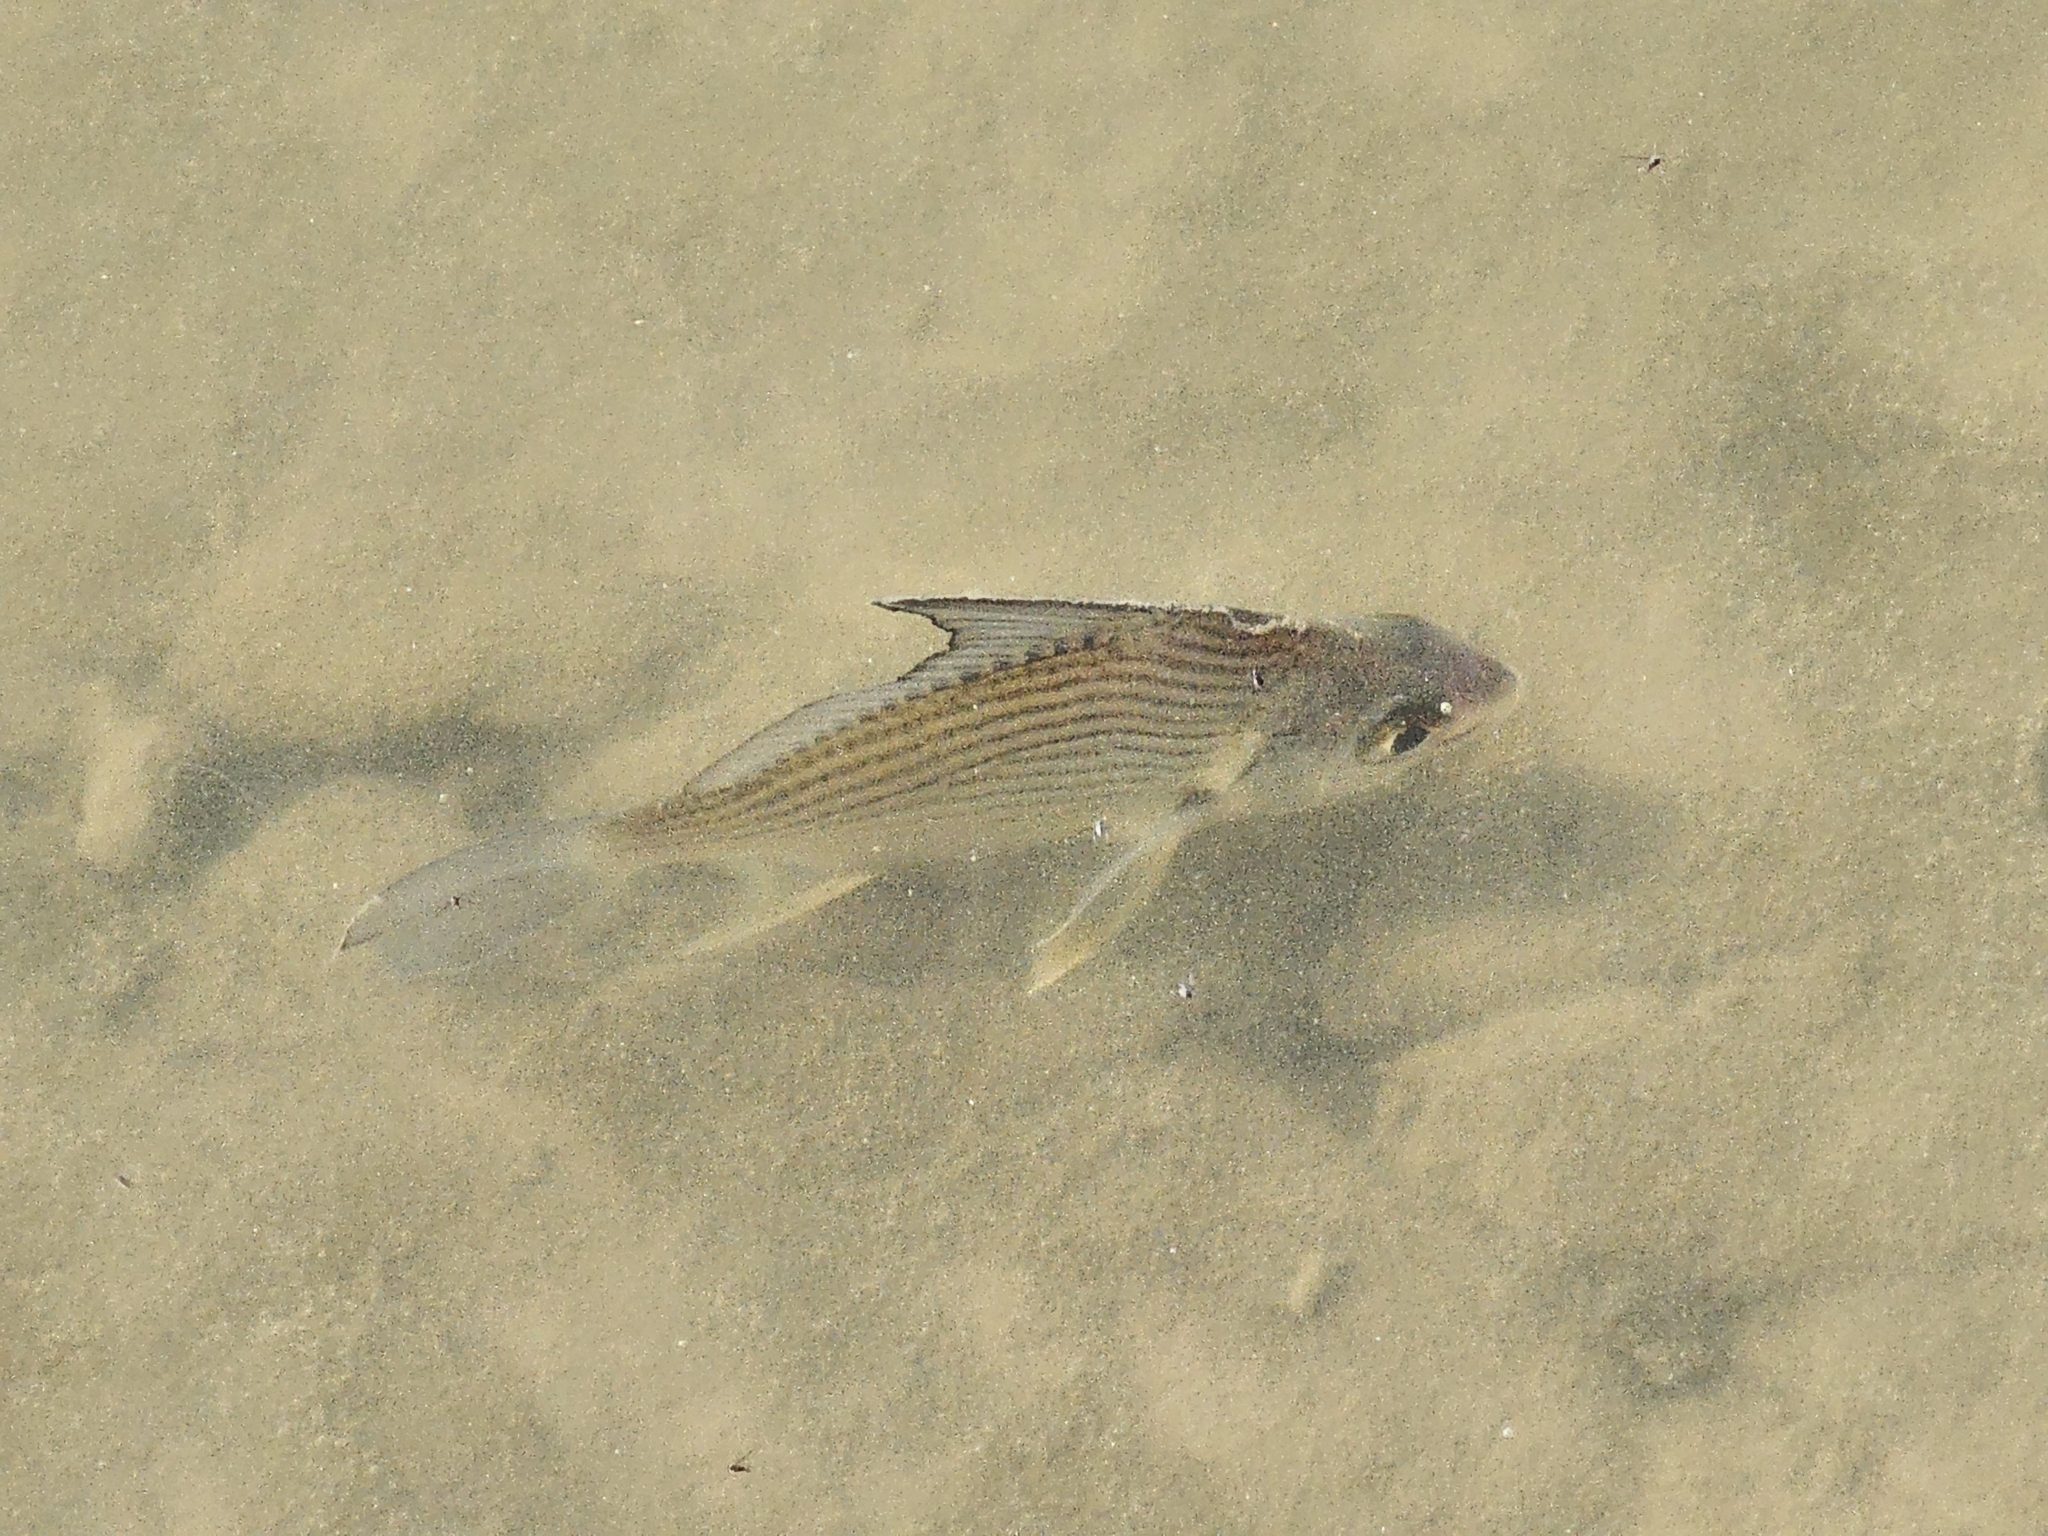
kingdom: Animalia
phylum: Chordata
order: Perciformes
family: Gerreidae
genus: Eugerres
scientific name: Eugerres plumieri
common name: Striped mojarra
